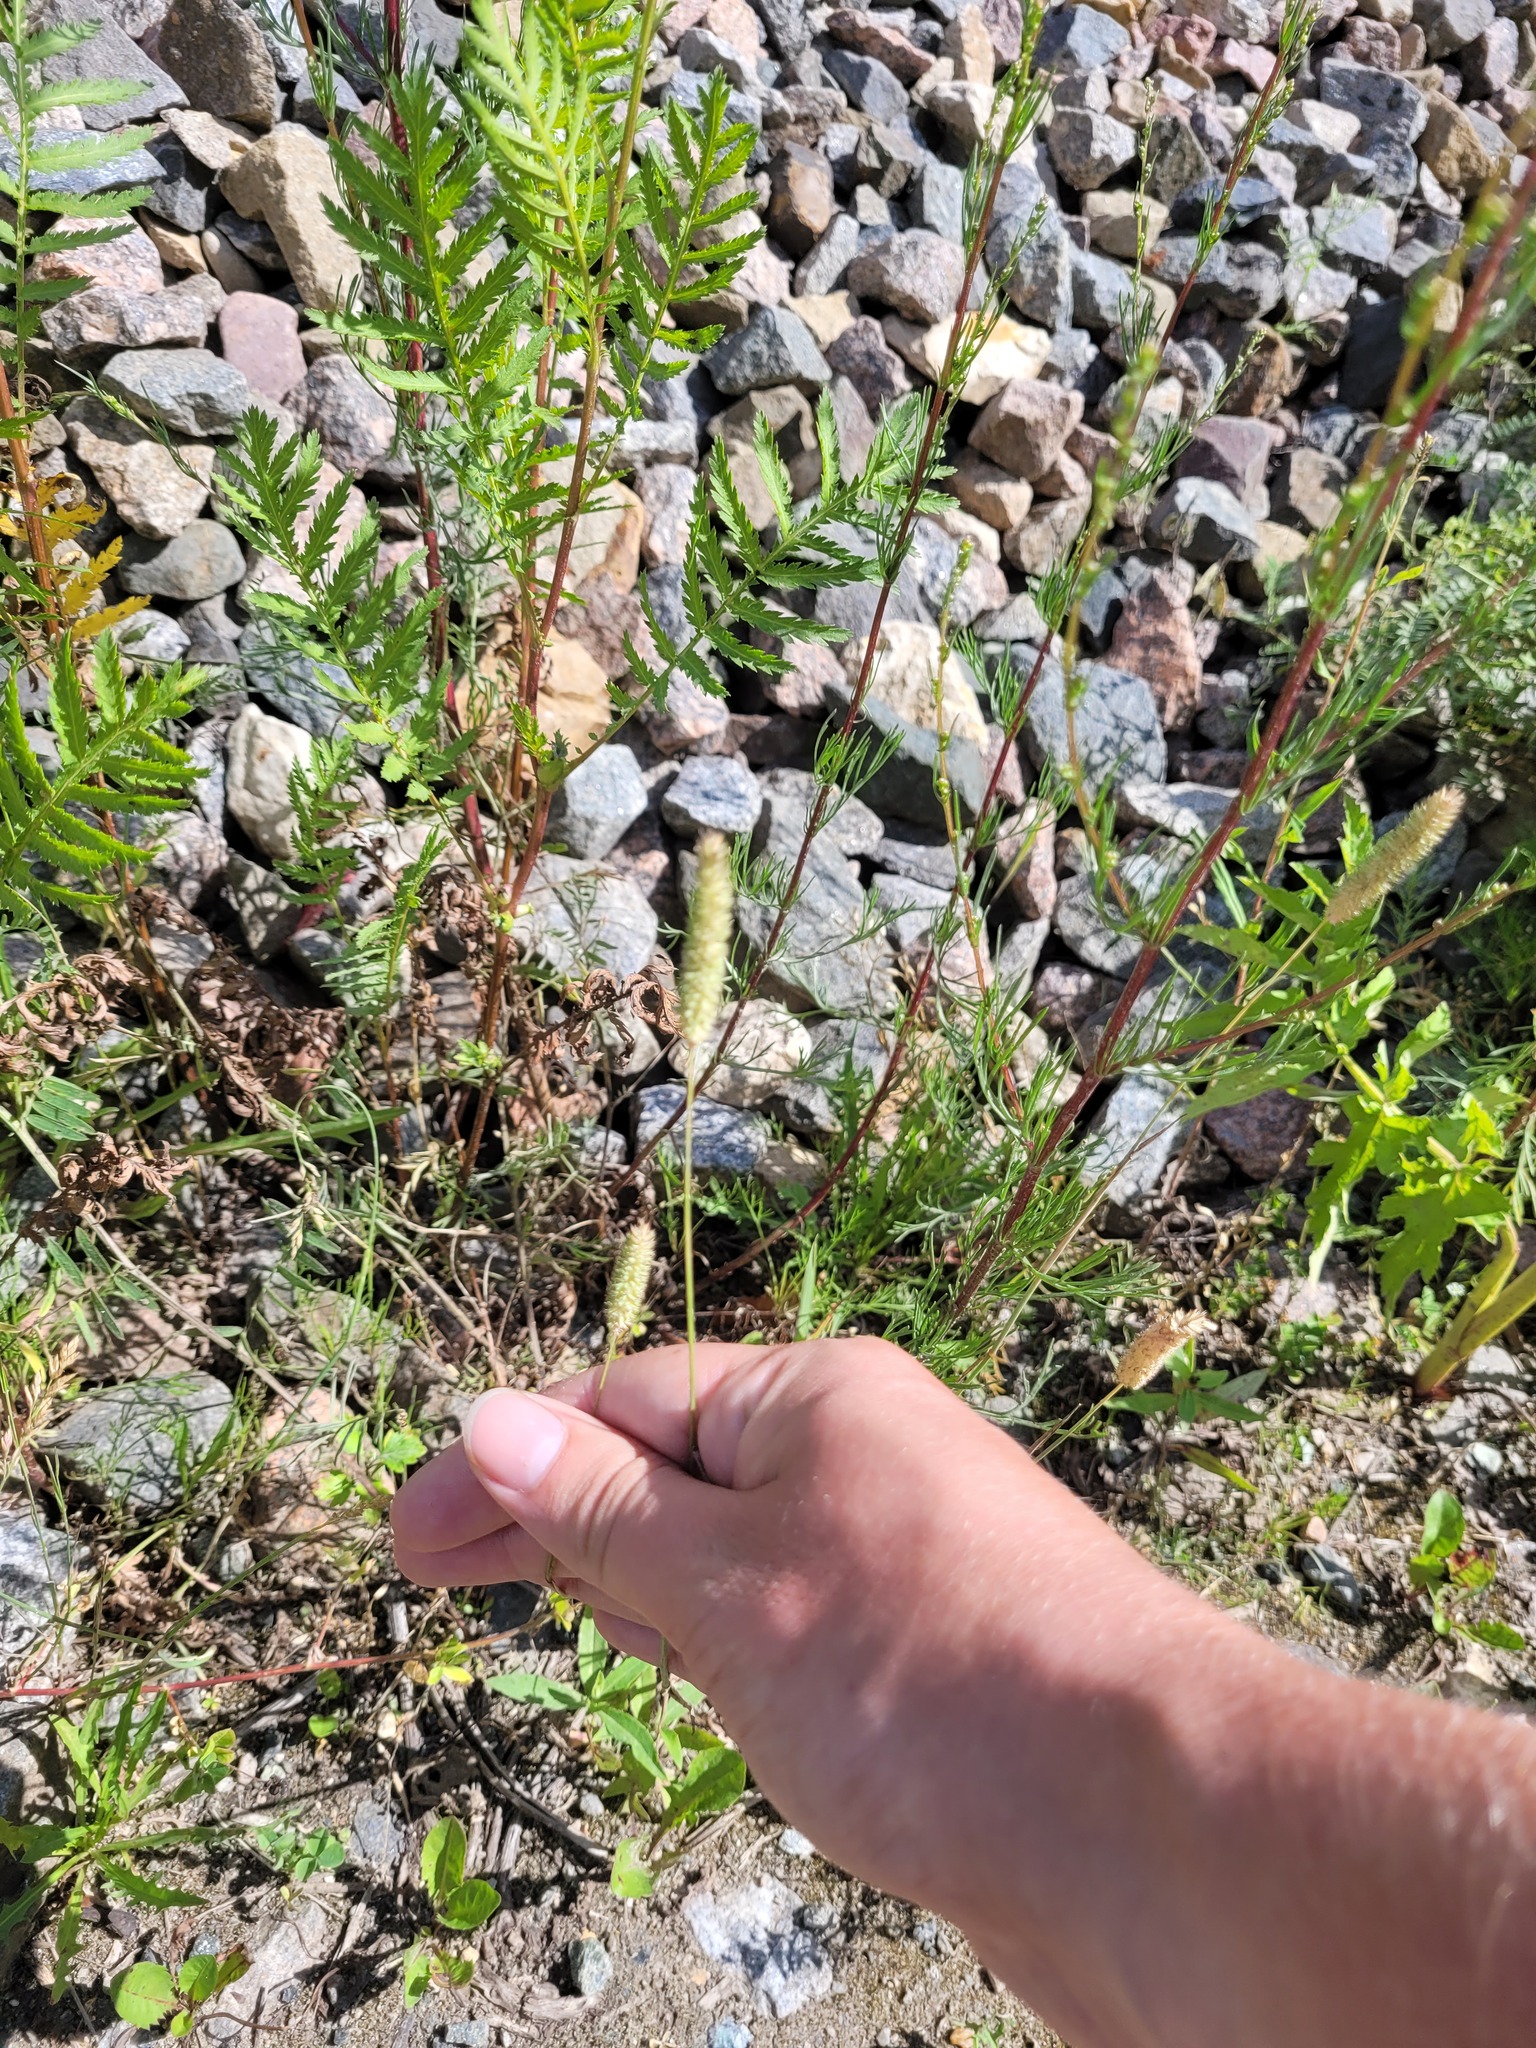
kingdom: Plantae
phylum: Tracheophyta
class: Liliopsida
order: Poales
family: Poaceae
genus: Phleum
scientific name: Phleum pratense
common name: Timothy grass
